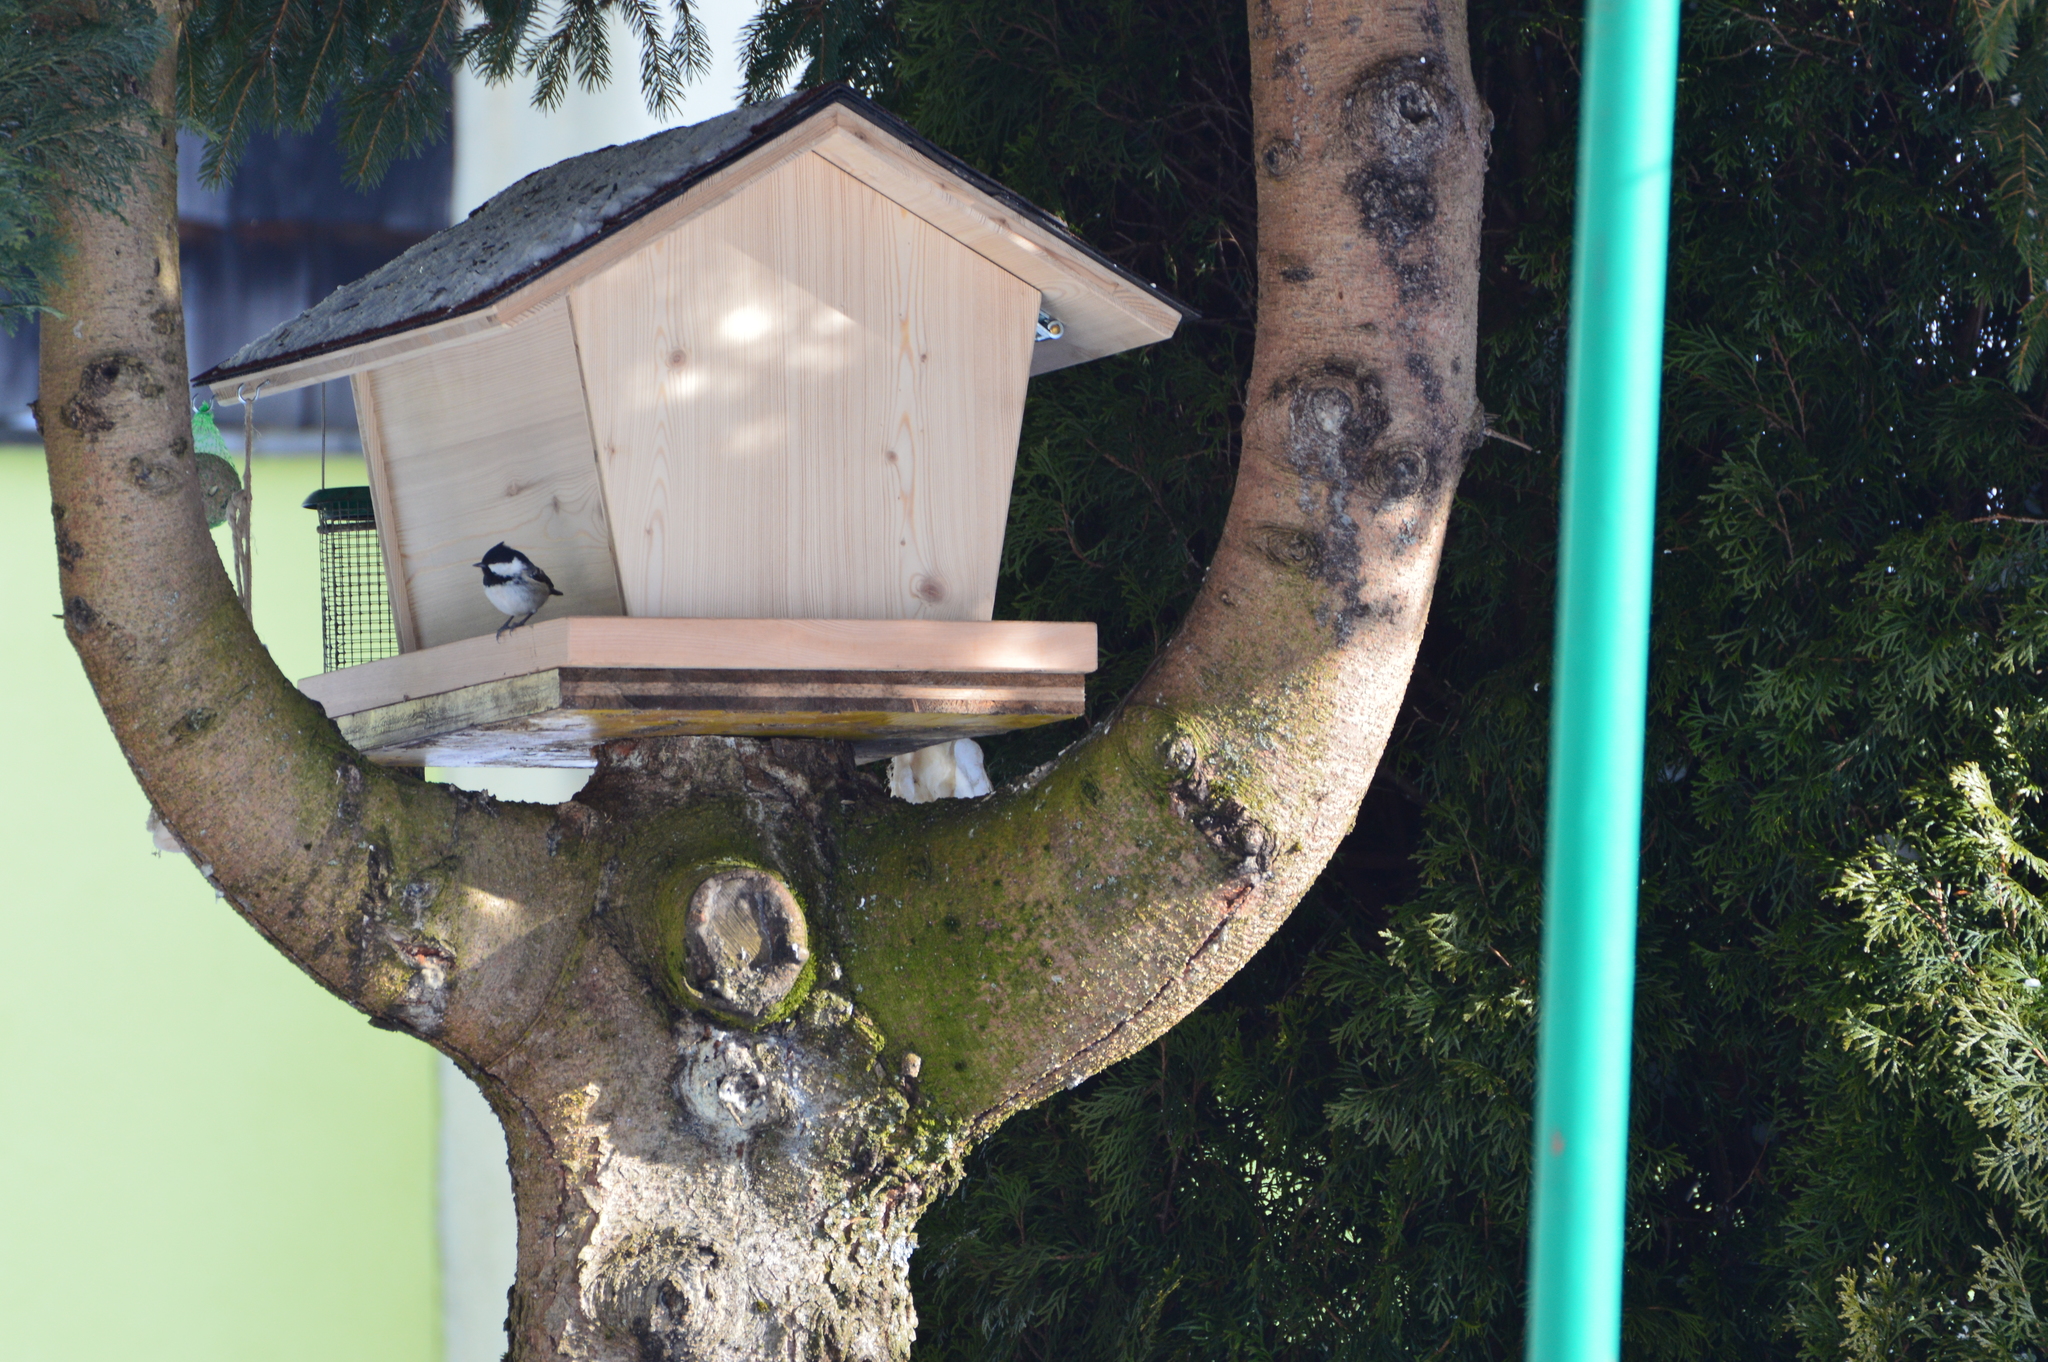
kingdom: Animalia
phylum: Chordata
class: Aves
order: Passeriformes
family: Paridae
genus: Periparus
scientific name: Periparus ater
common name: Coal tit
